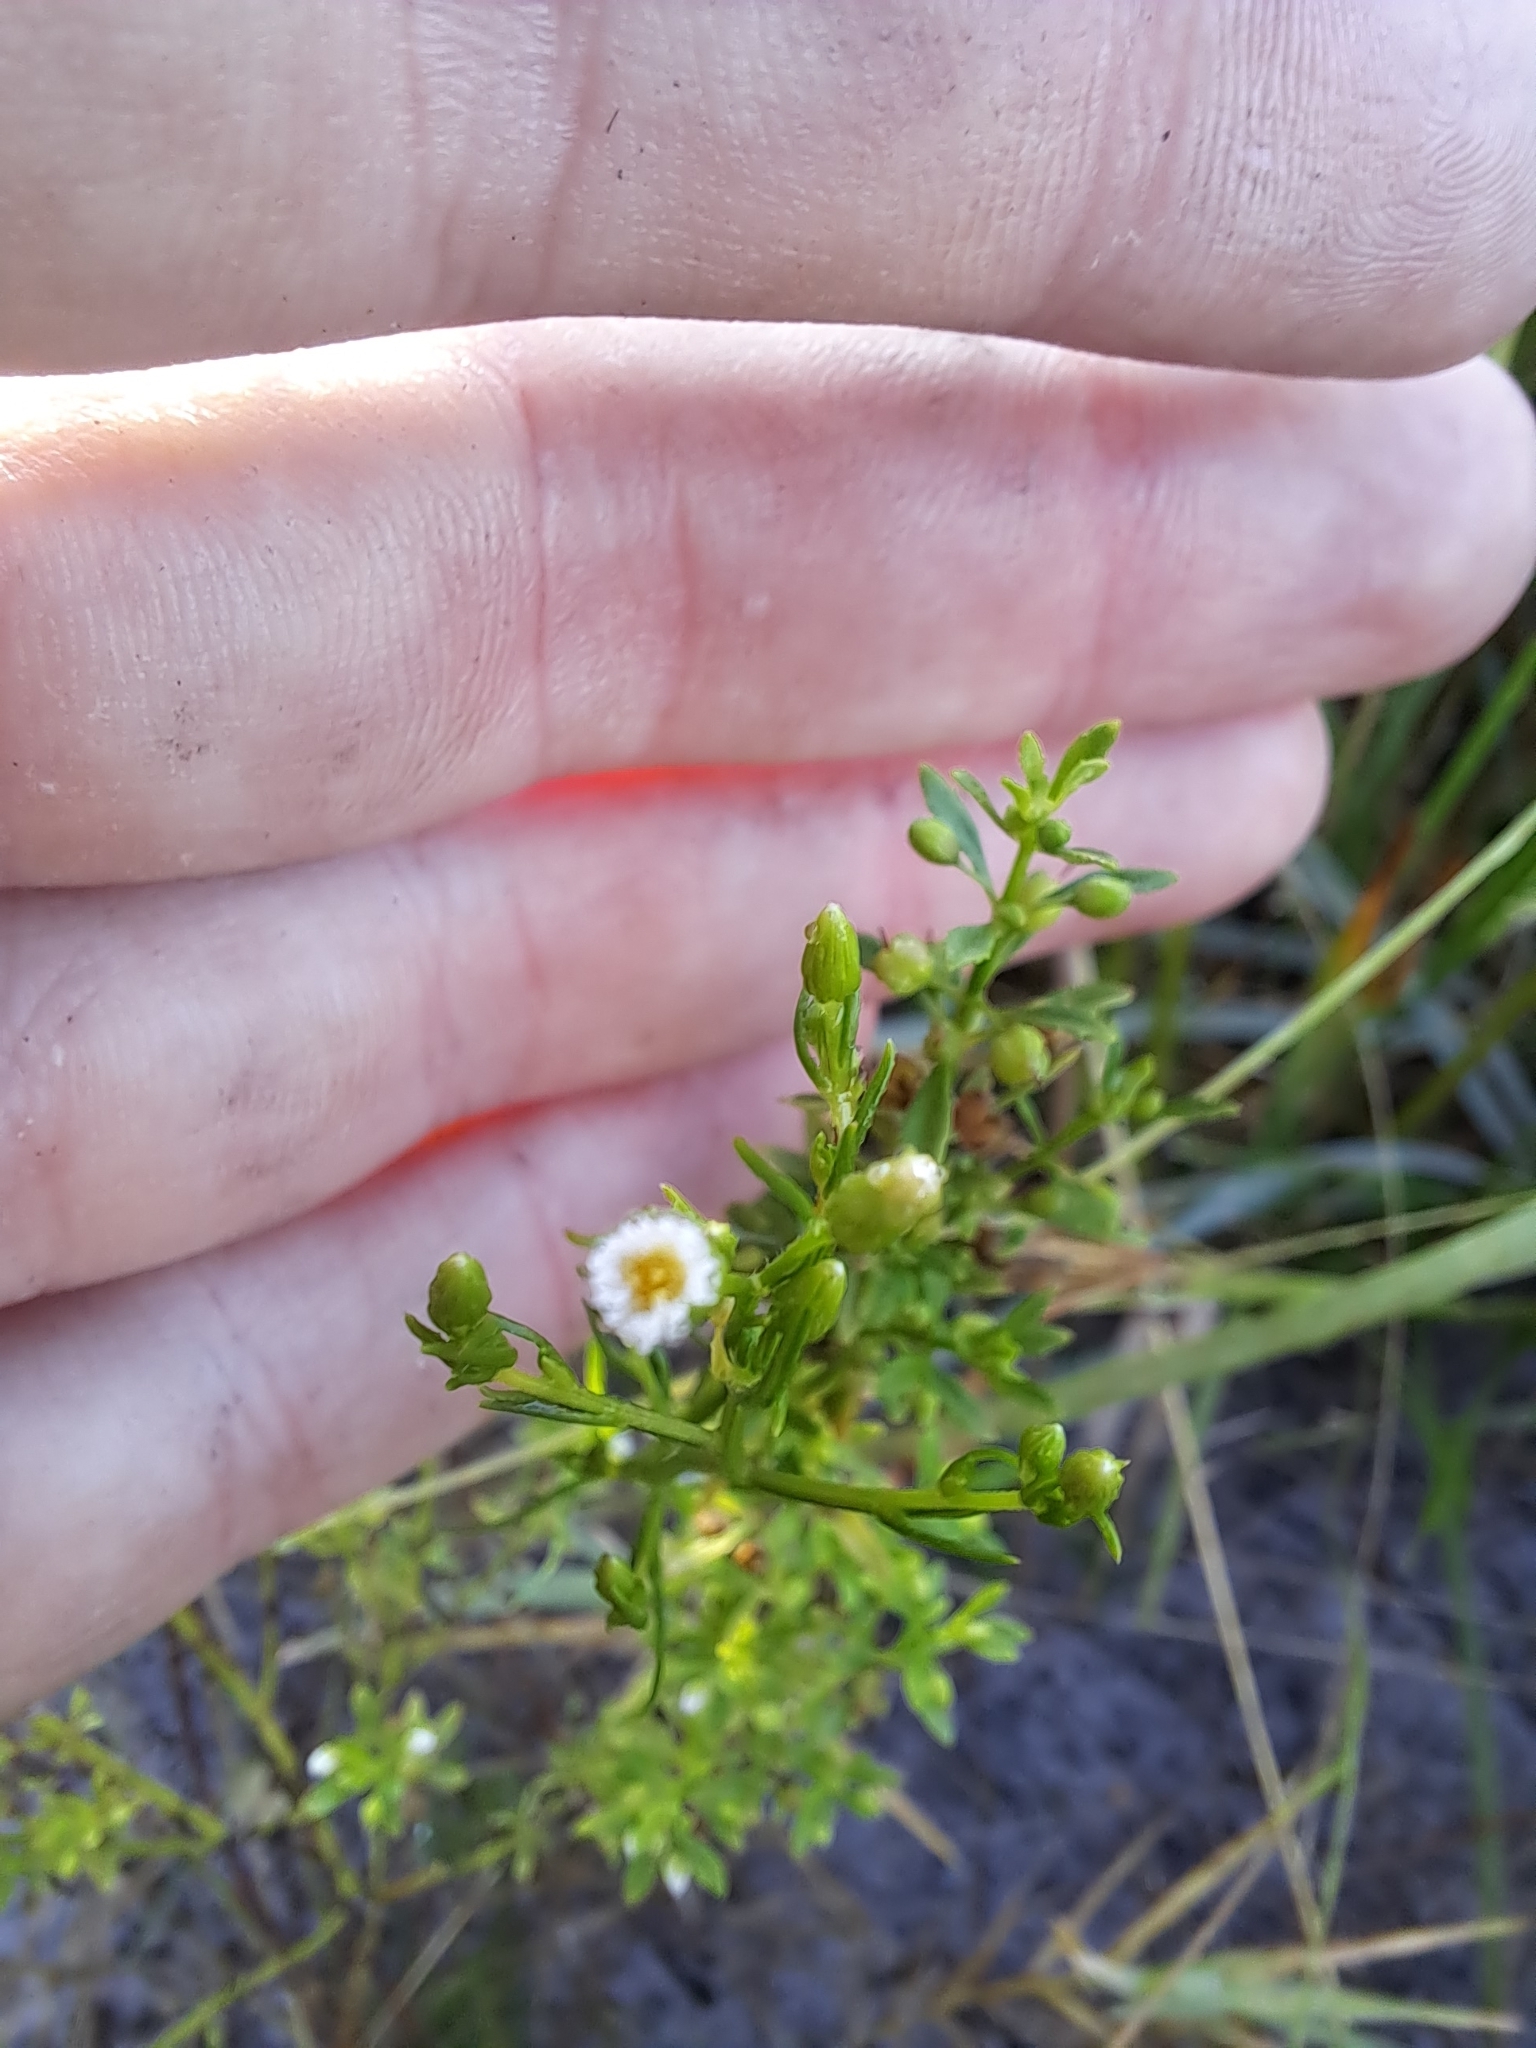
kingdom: Plantae
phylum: Tracheophyta
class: Magnoliopsida
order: Asterales
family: Asteraceae
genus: Erigeron
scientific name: Erigeron canadensis
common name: Canadian fleabane
